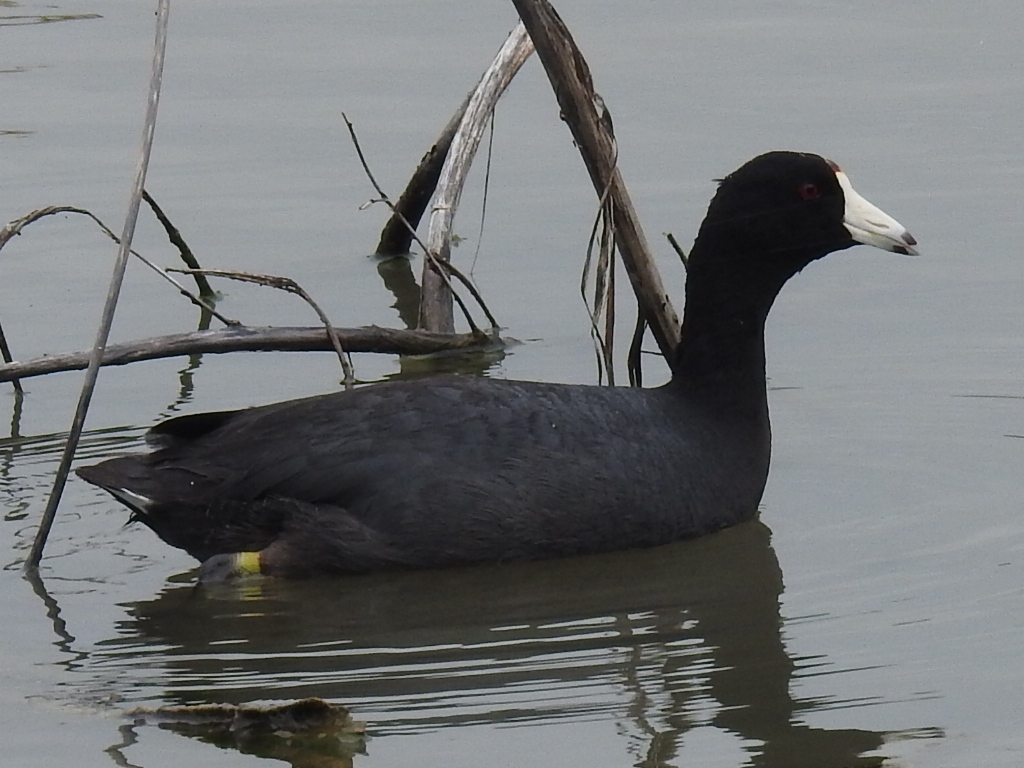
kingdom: Animalia
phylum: Chordata
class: Aves
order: Gruiformes
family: Rallidae
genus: Fulica
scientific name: Fulica americana
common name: American coot
